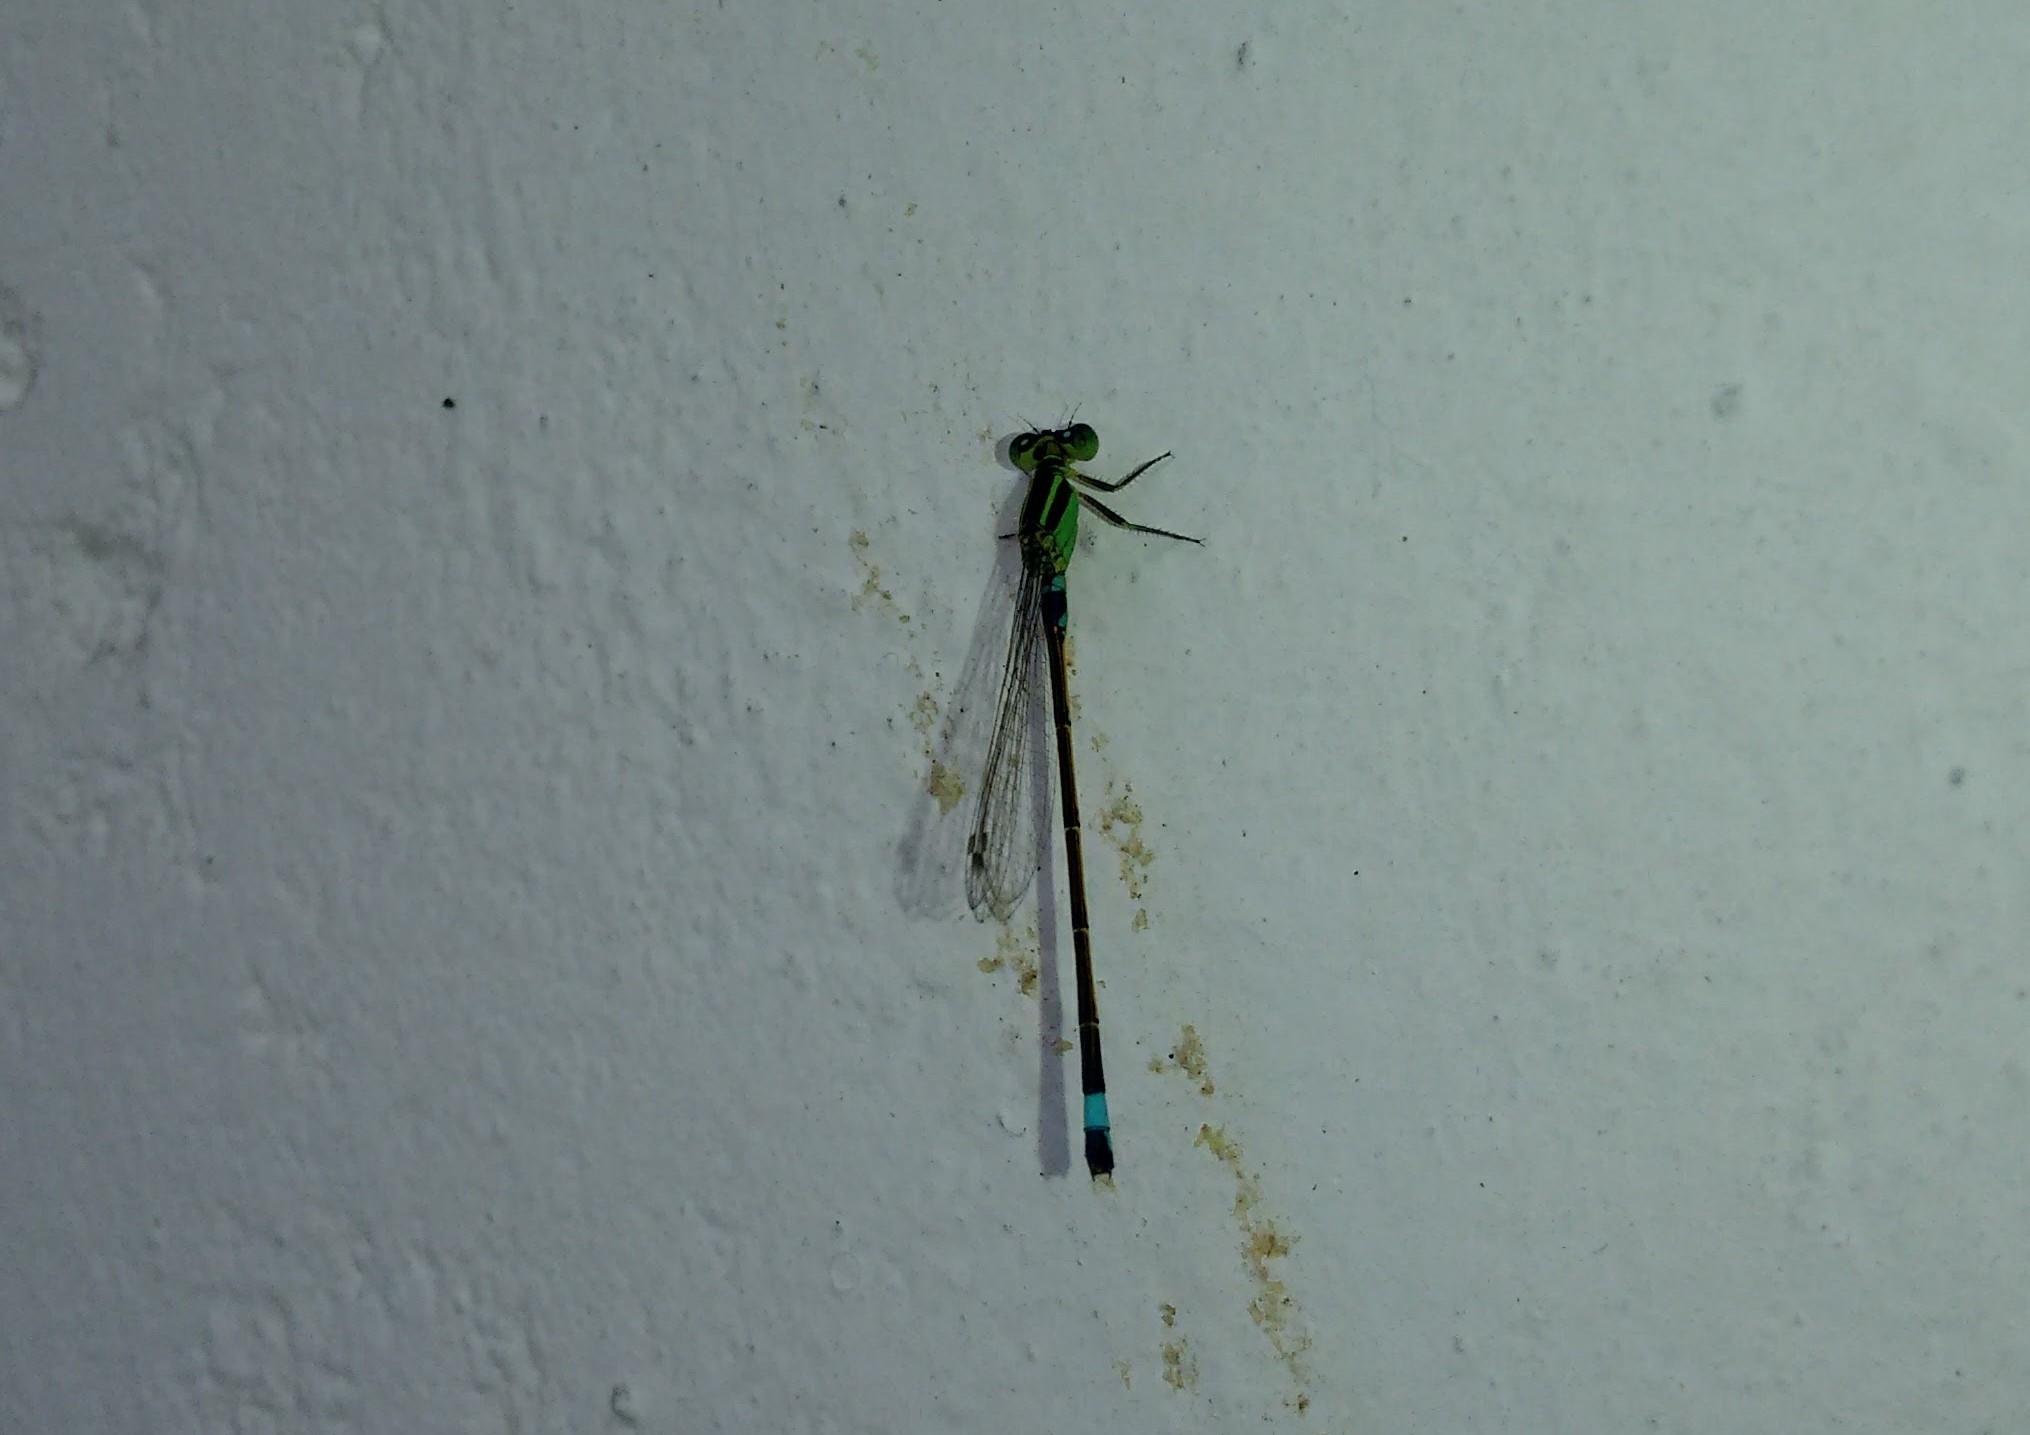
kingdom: Animalia
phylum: Arthropoda
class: Insecta
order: Odonata
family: Coenagrionidae
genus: Ischnura
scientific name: Ischnura senegalensis
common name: Tropical bluetail
